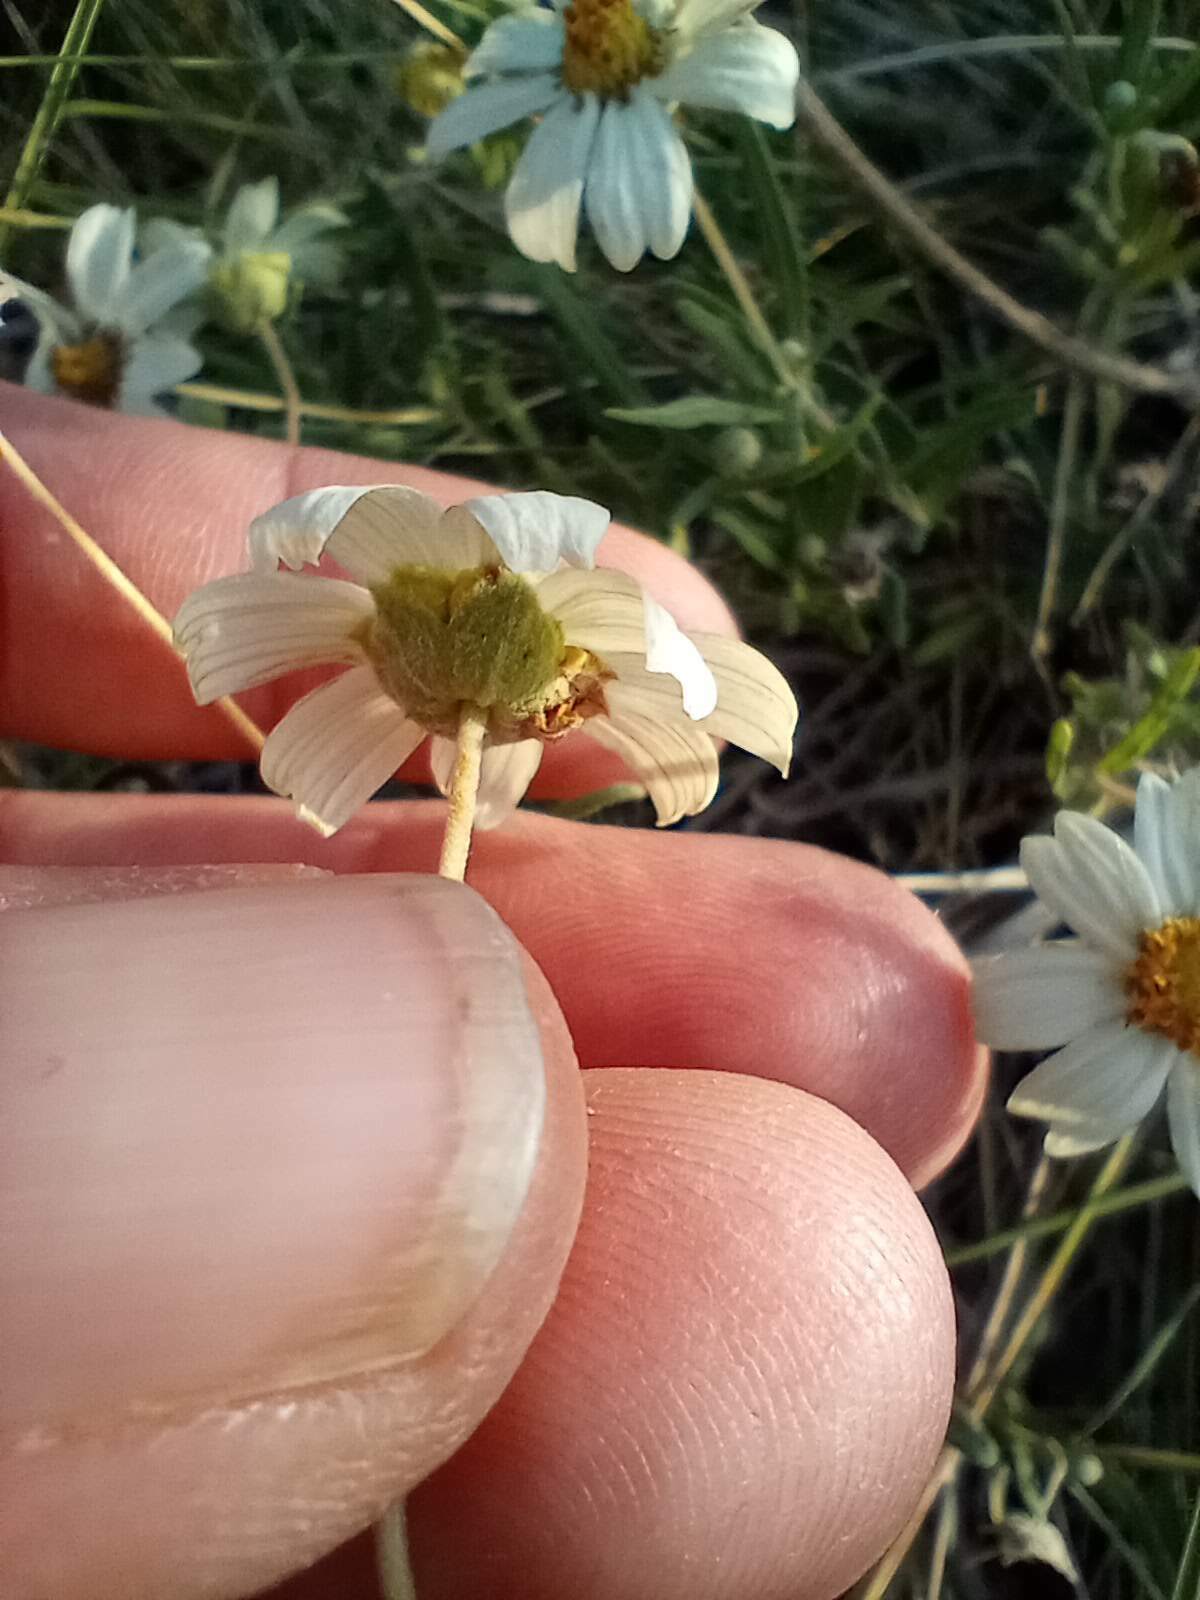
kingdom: Plantae
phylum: Tracheophyta
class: Magnoliopsida
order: Asterales
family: Asteraceae
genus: Melampodium
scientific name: Melampodium leucanthum
